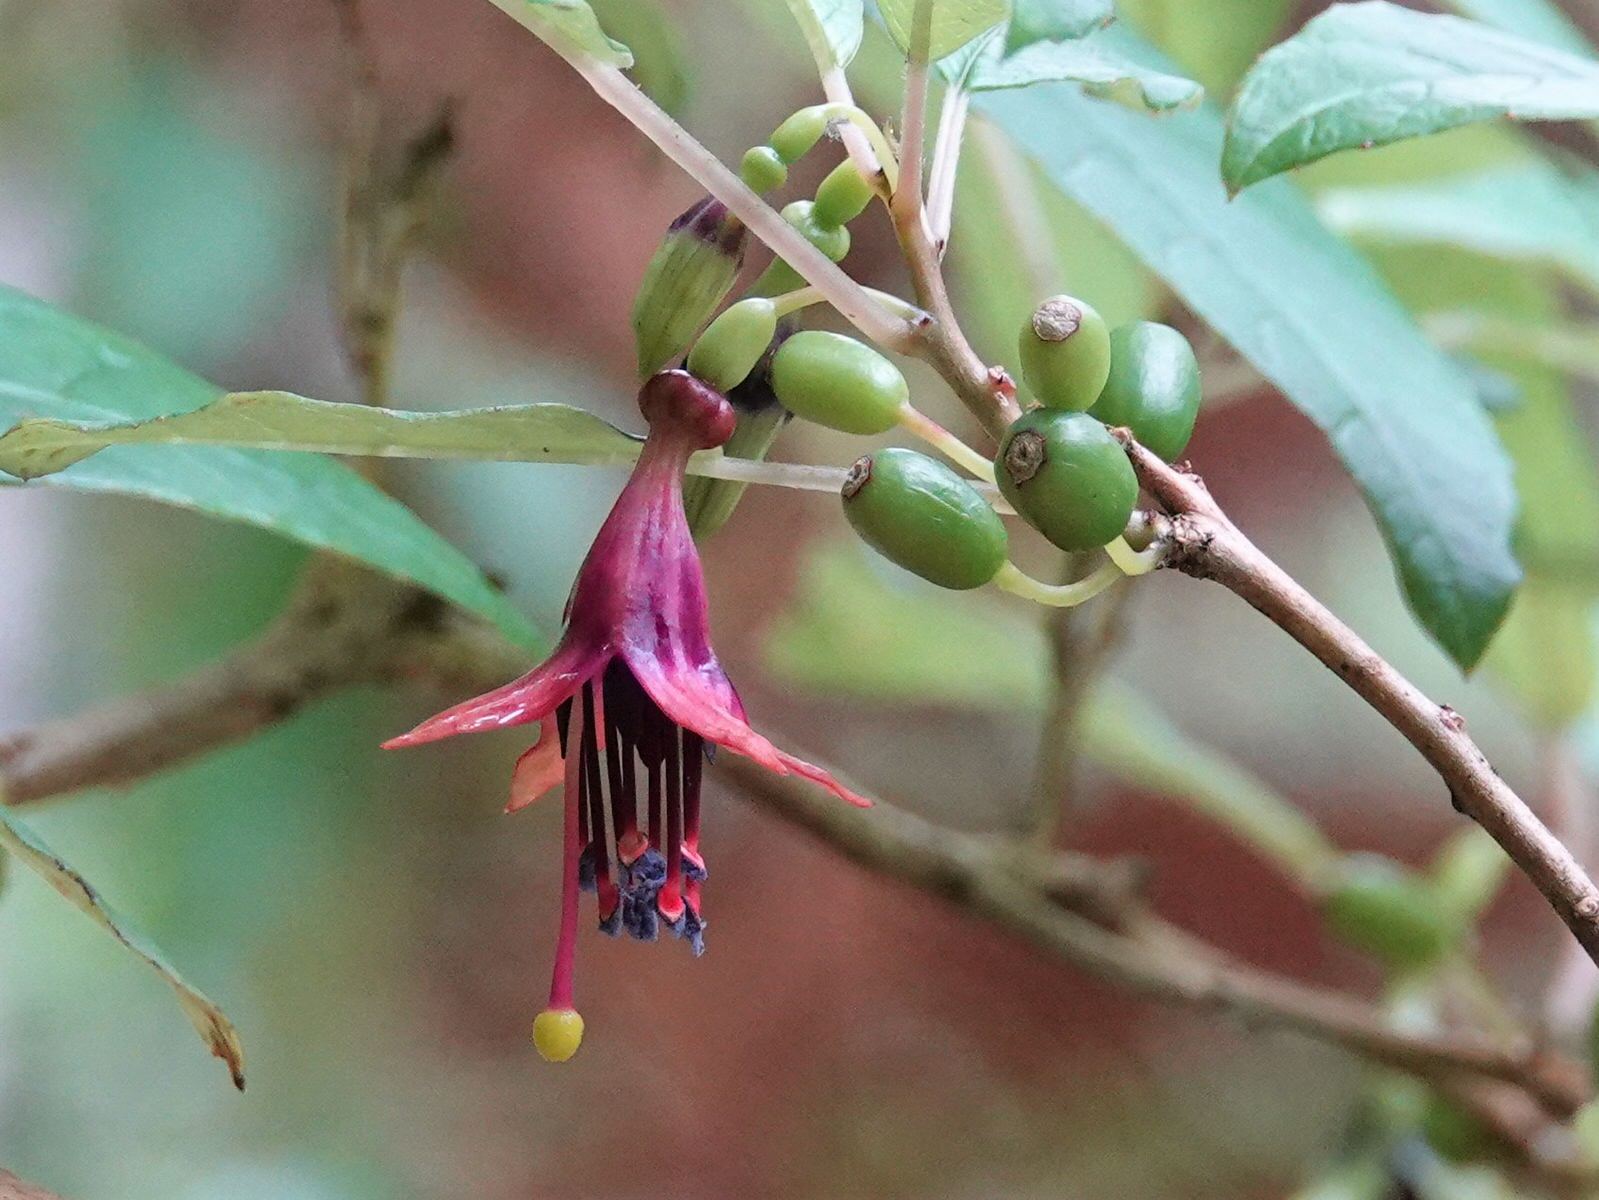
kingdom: Plantae
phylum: Tracheophyta
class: Magnoliopsida
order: Myrtales
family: Onagraceae
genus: Fuchsia
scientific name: Fuchsia excorticata
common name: Tree fuchsia
